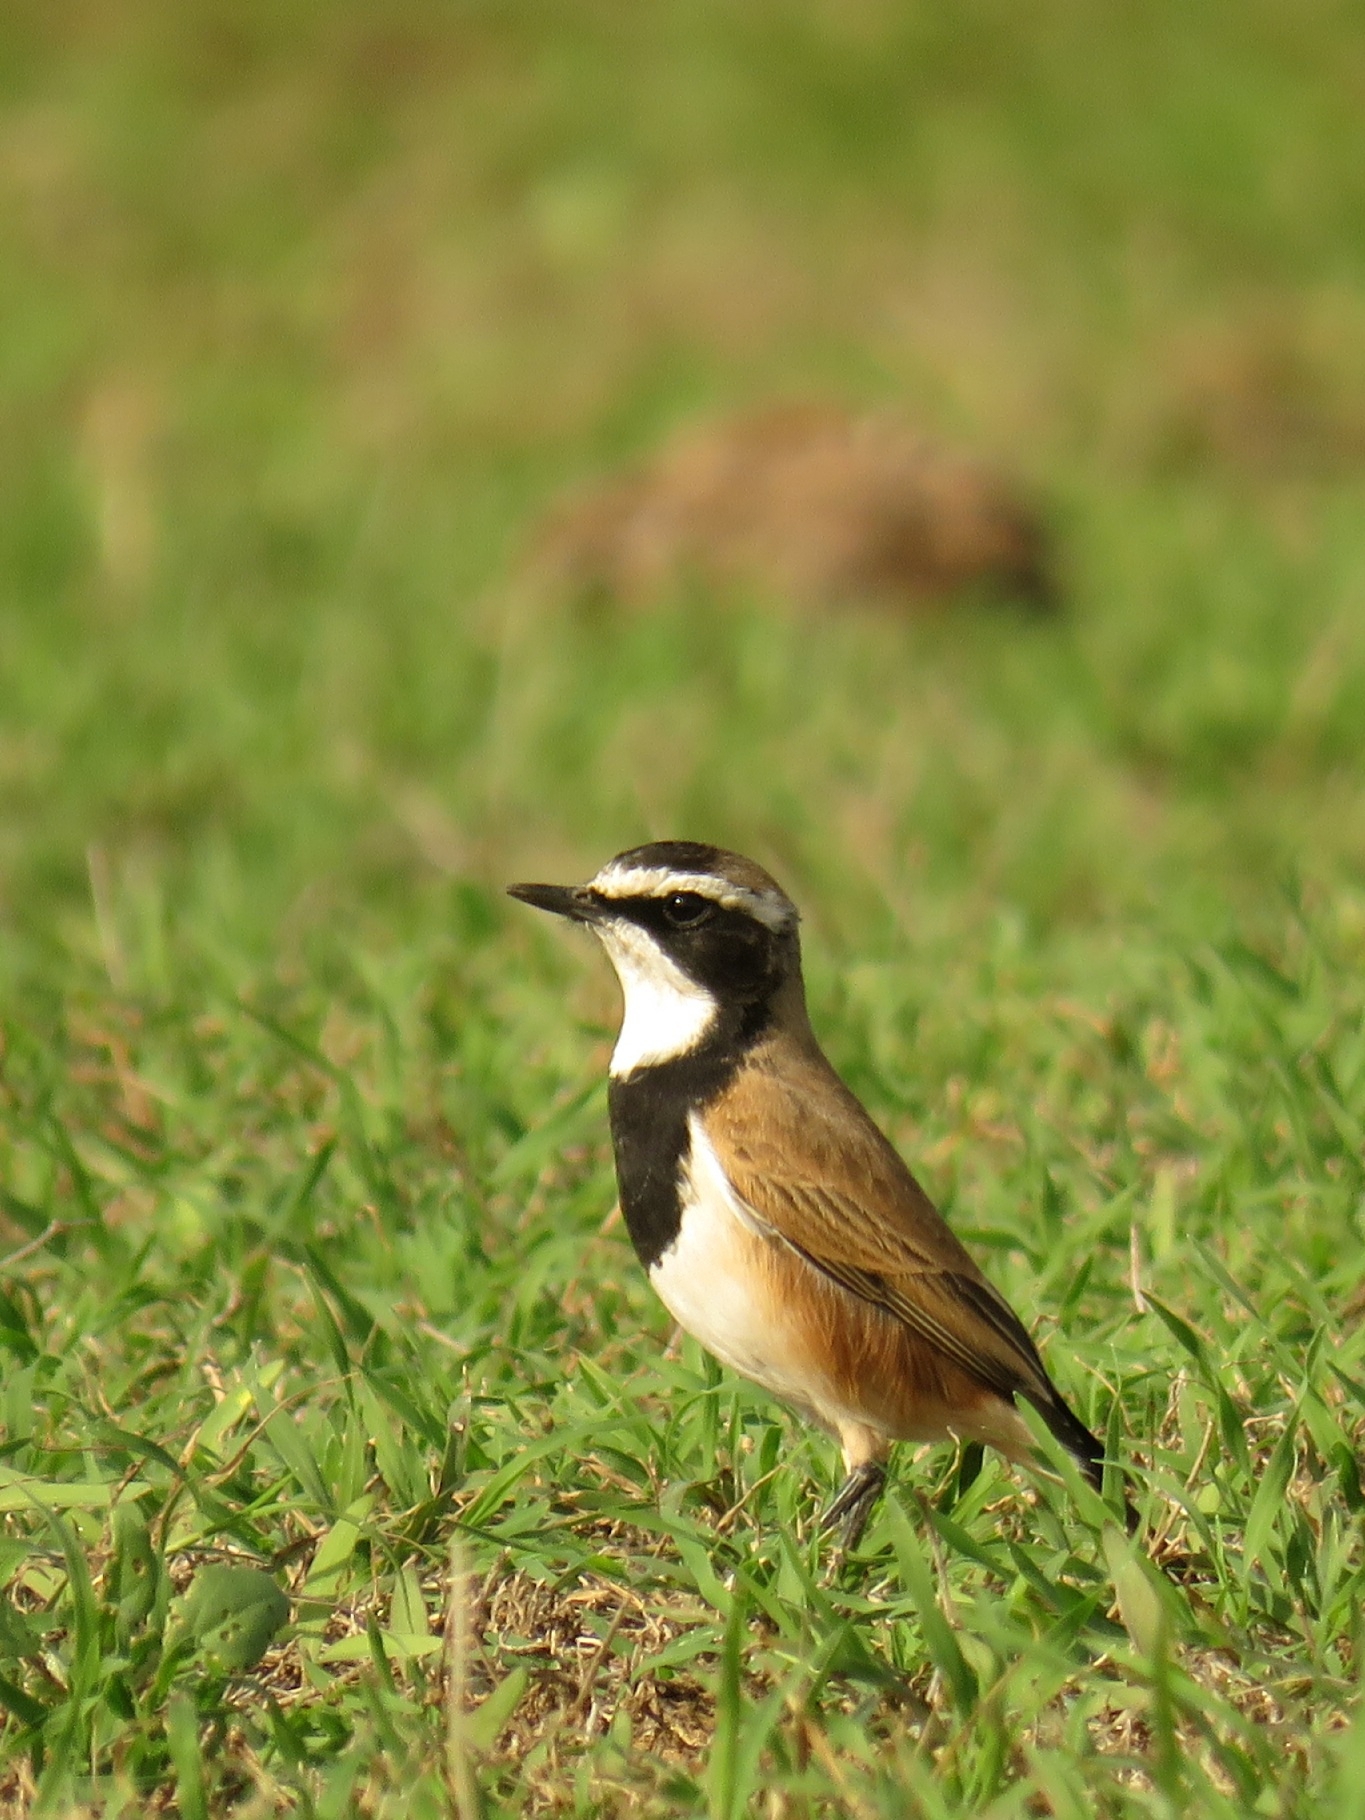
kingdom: Animalia
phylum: Chordata
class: Aves
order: Passeriformes
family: Muscicapidae
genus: Oenanthe
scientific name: Oenanthe pileata
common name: Capped wheatear
